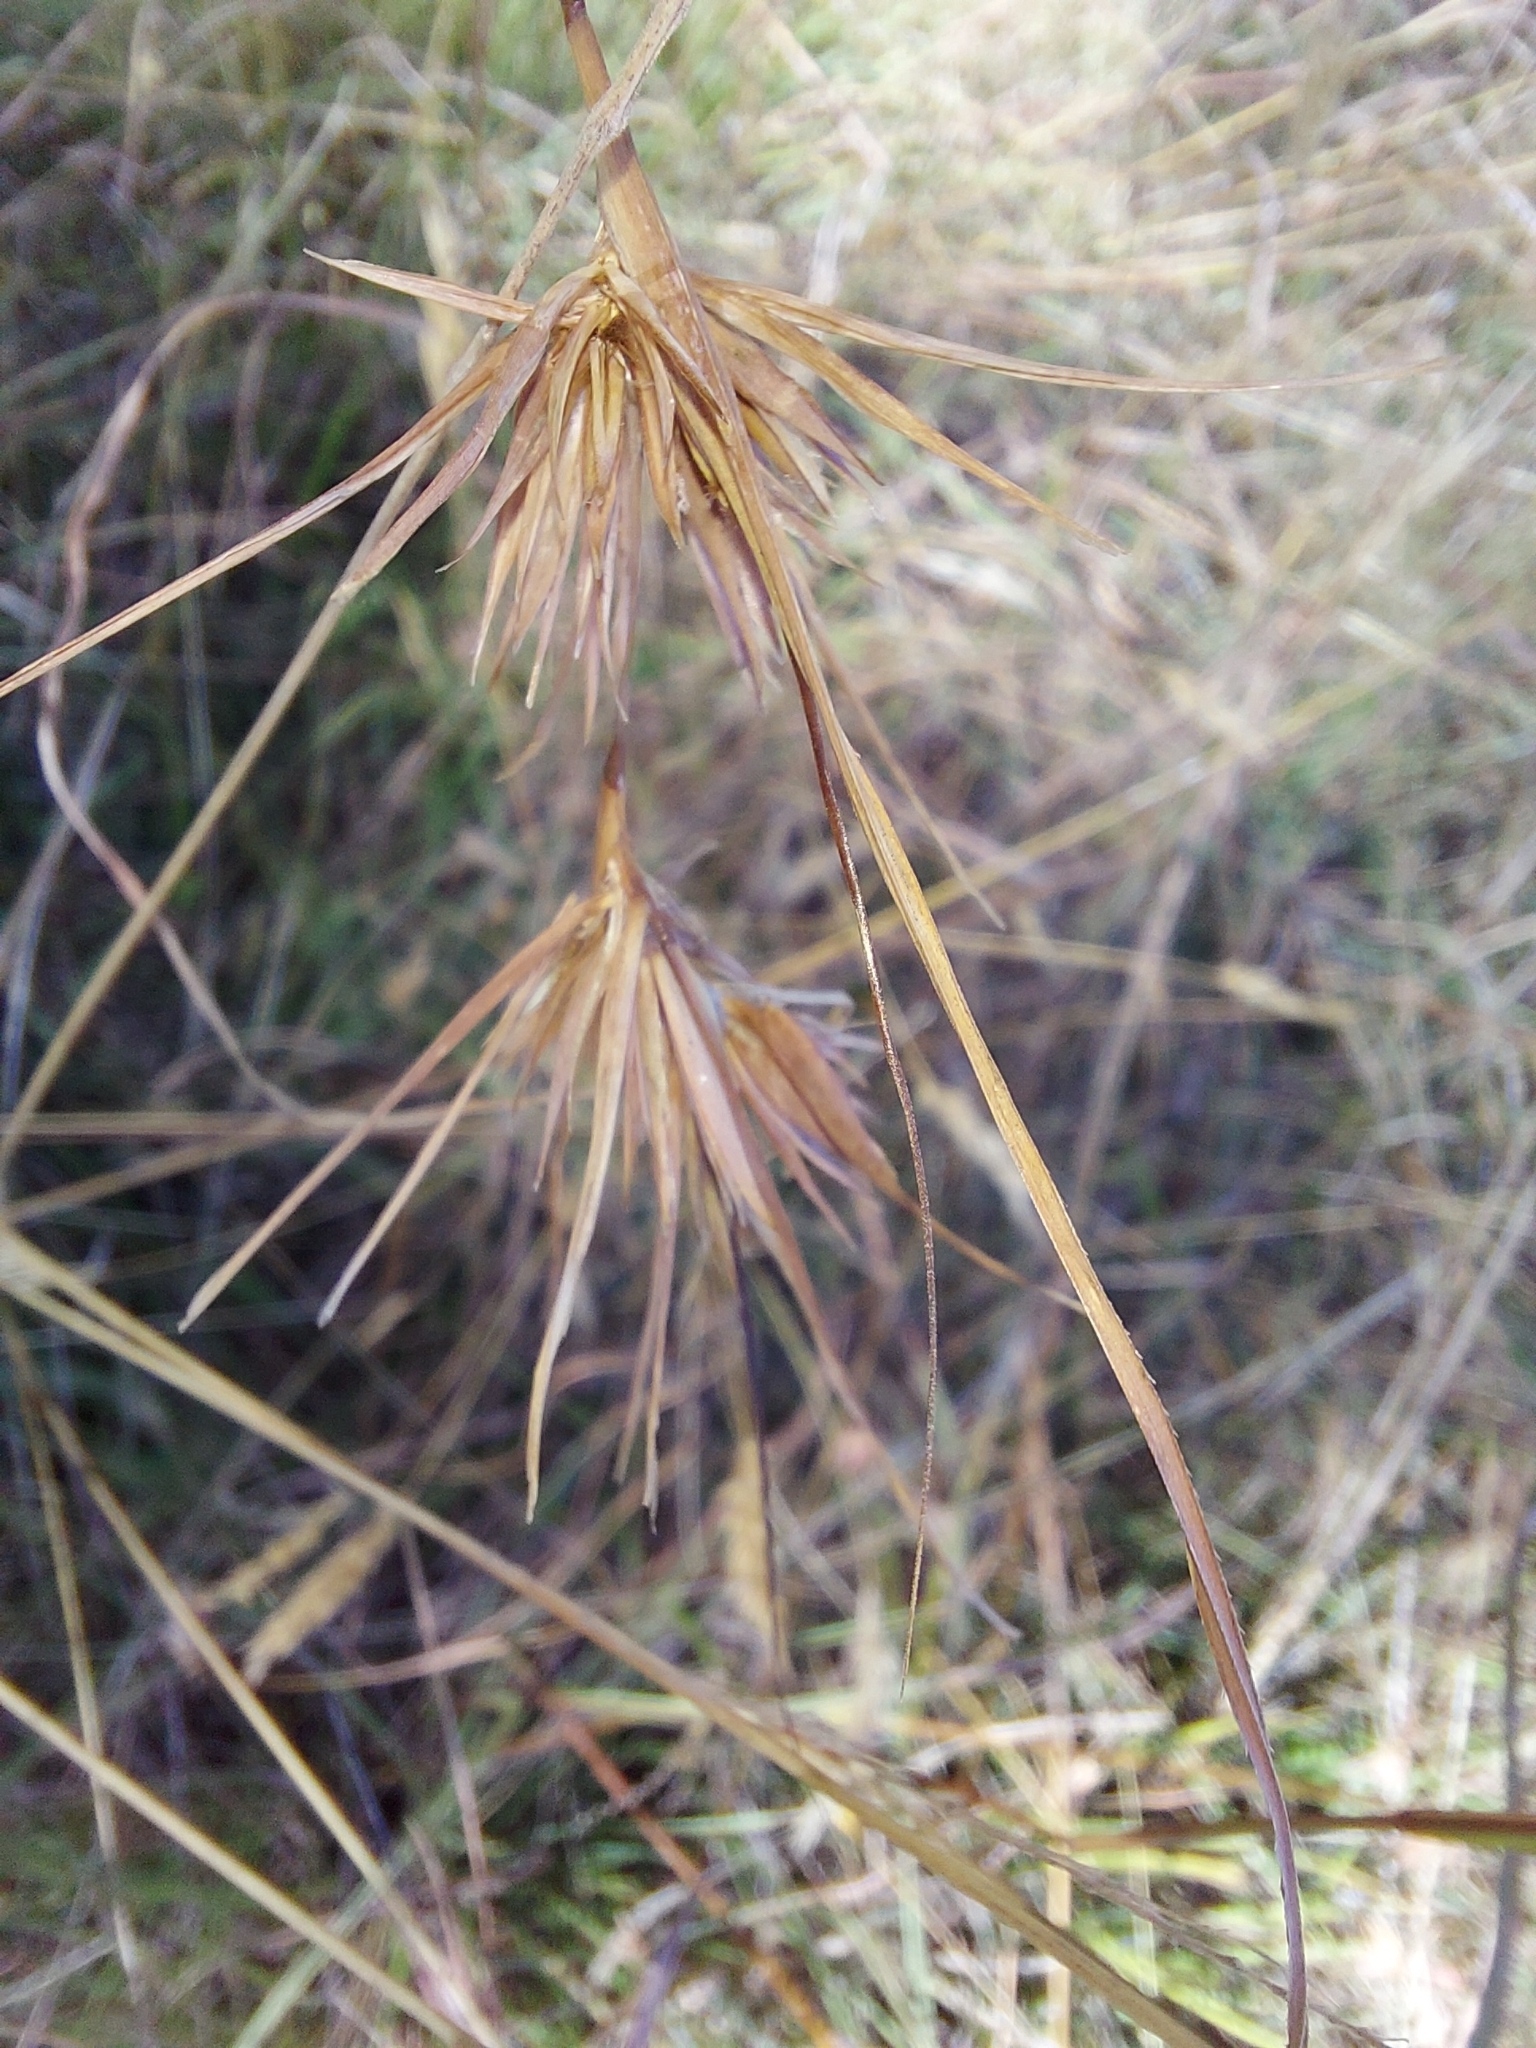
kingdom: Plantae
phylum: Tracheophyta
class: Liliopsida
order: Poales
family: Poaceae
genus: Themeda
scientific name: Themeda triandra
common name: Kangaroo grass
